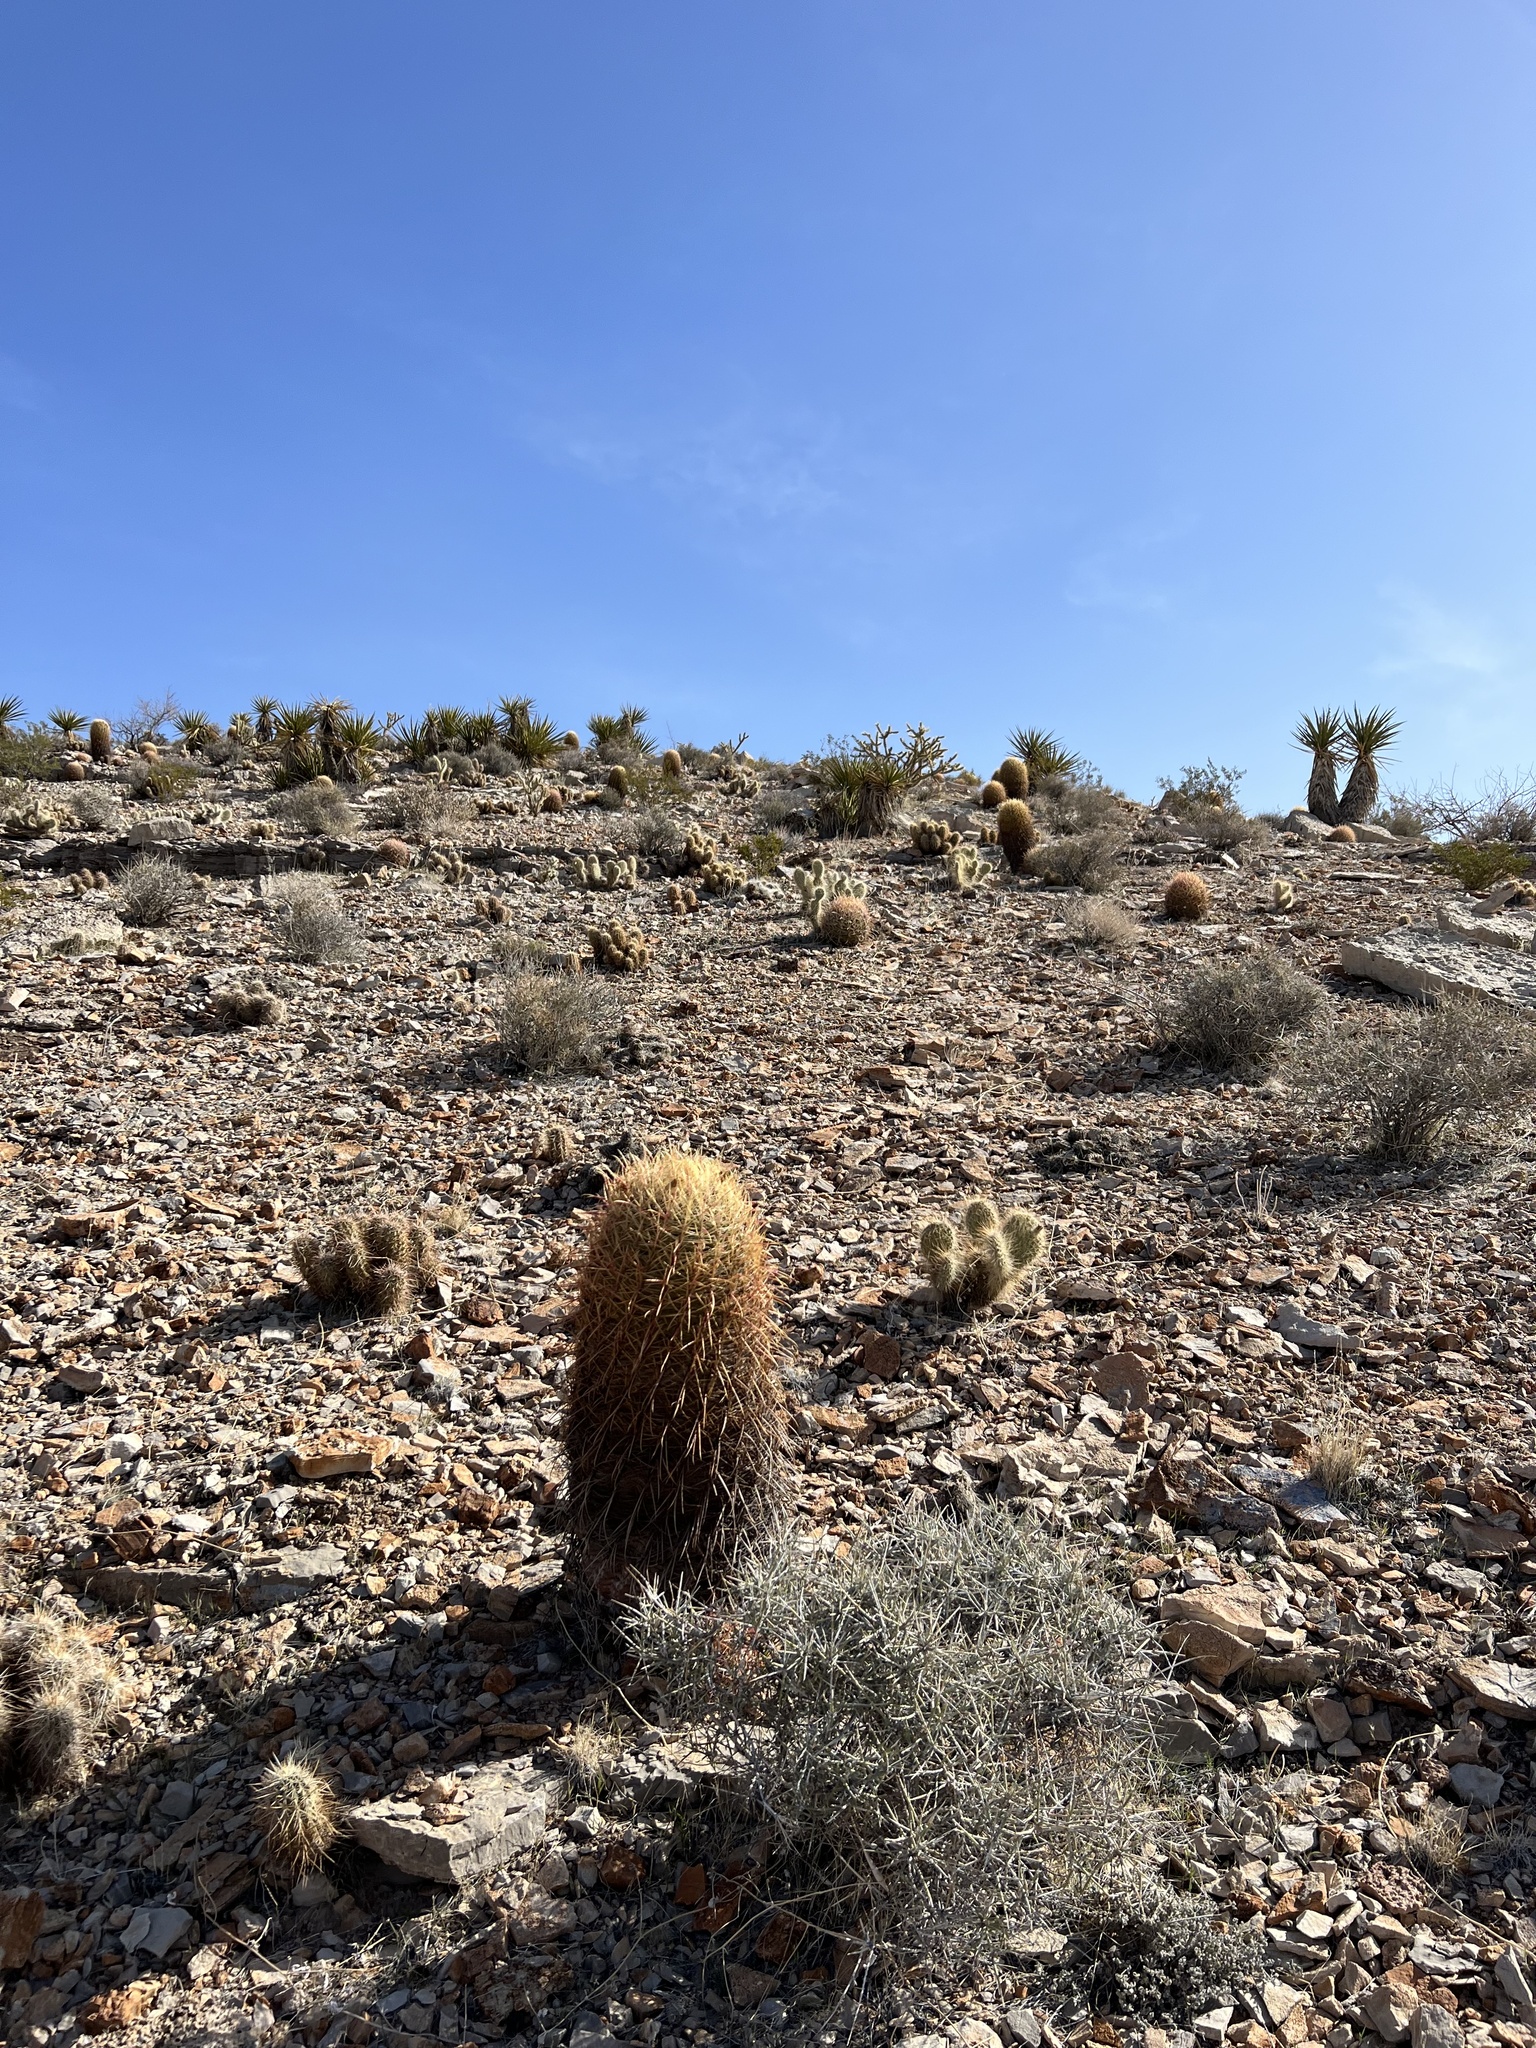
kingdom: Plantae
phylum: Tracheophyta
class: Magnoliopsida
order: Caryophyllales
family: Cactaceae
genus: Ferocactus
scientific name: Ferocactus cylindraceus
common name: California barrel cactus
